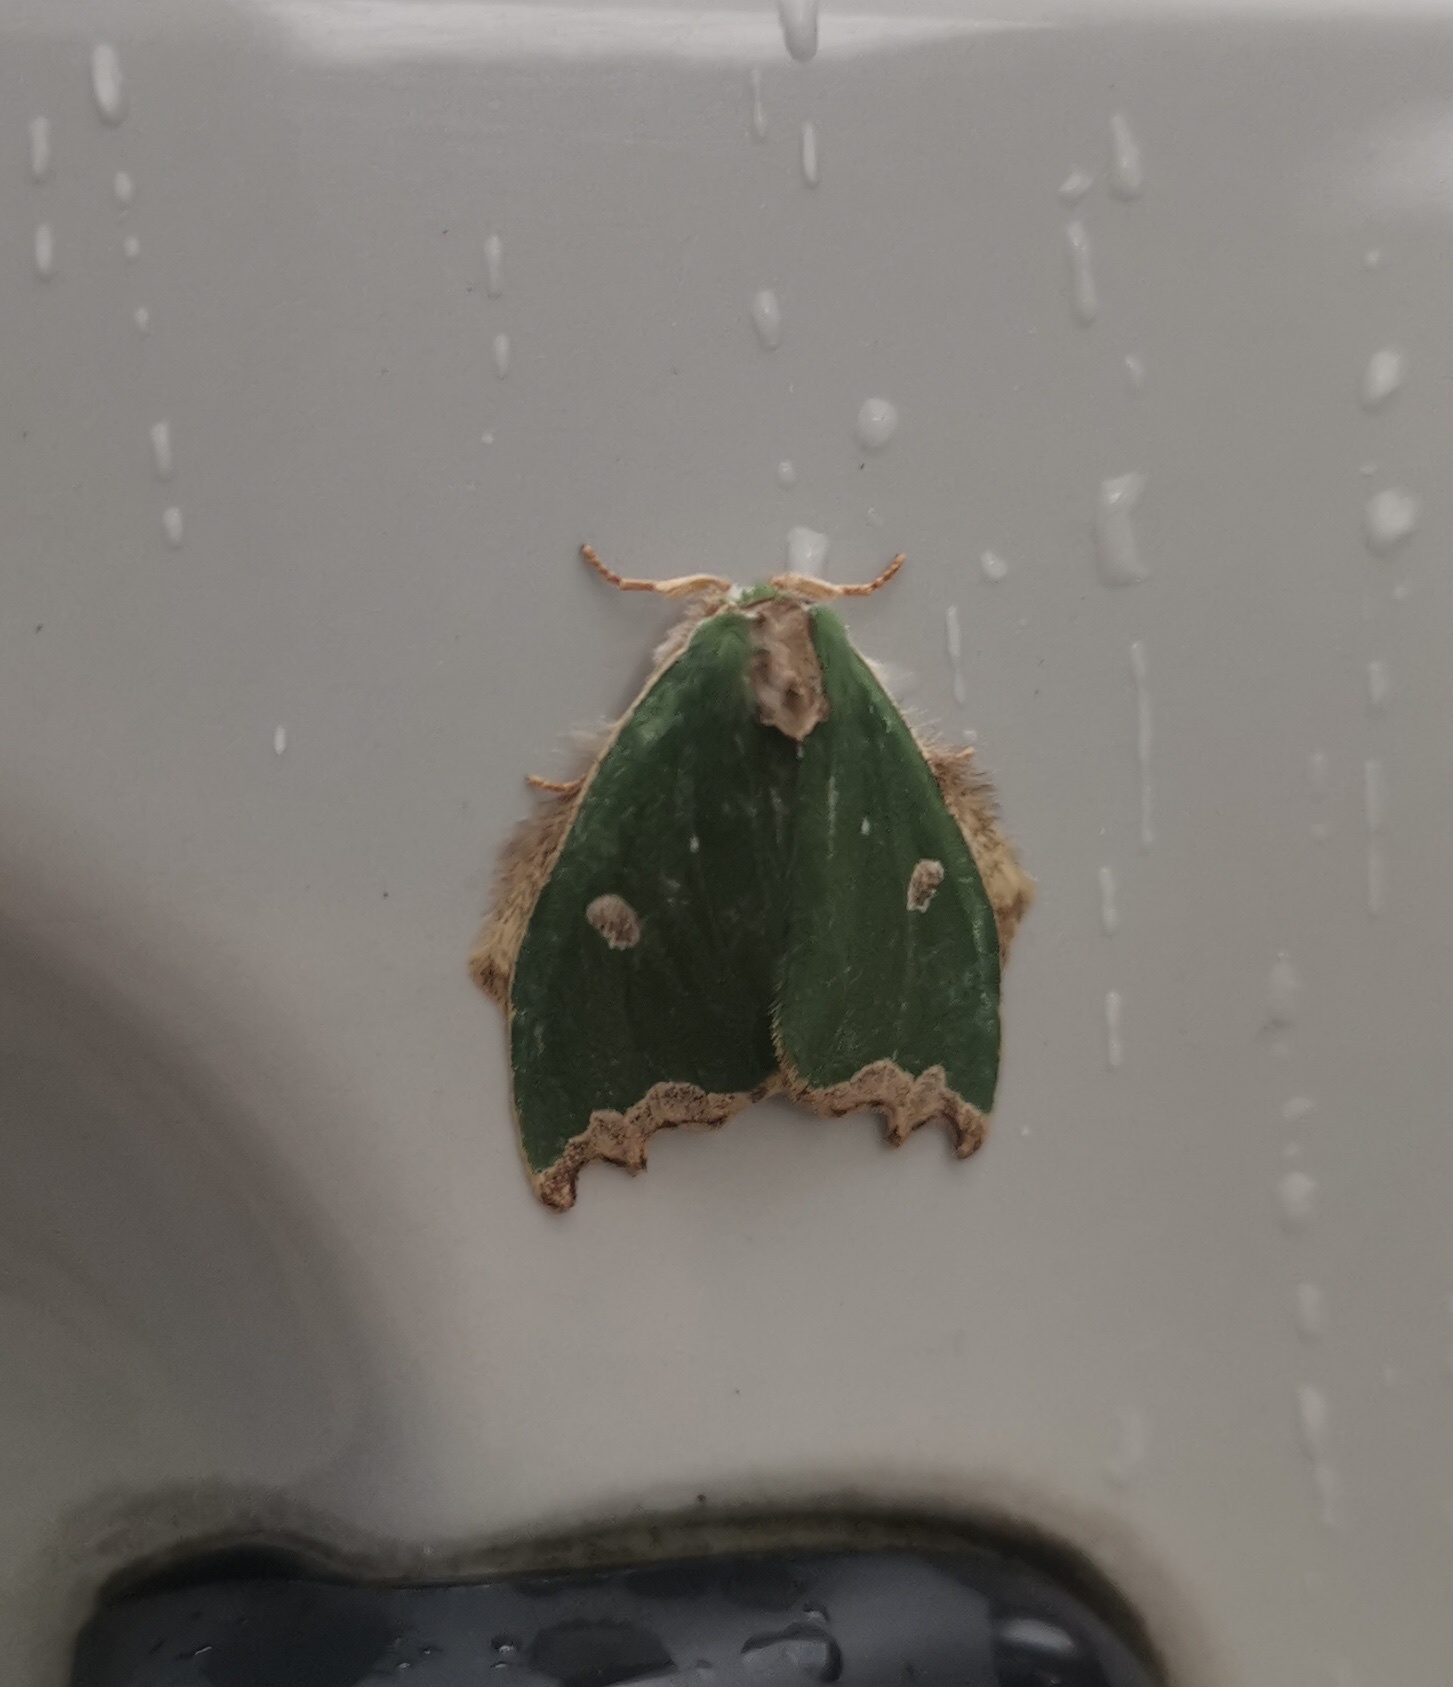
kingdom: Animalia
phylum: Arthropoda
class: Insecta
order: Lepidoptera
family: Notodontidae
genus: Rosema
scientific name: Rosema epigena
